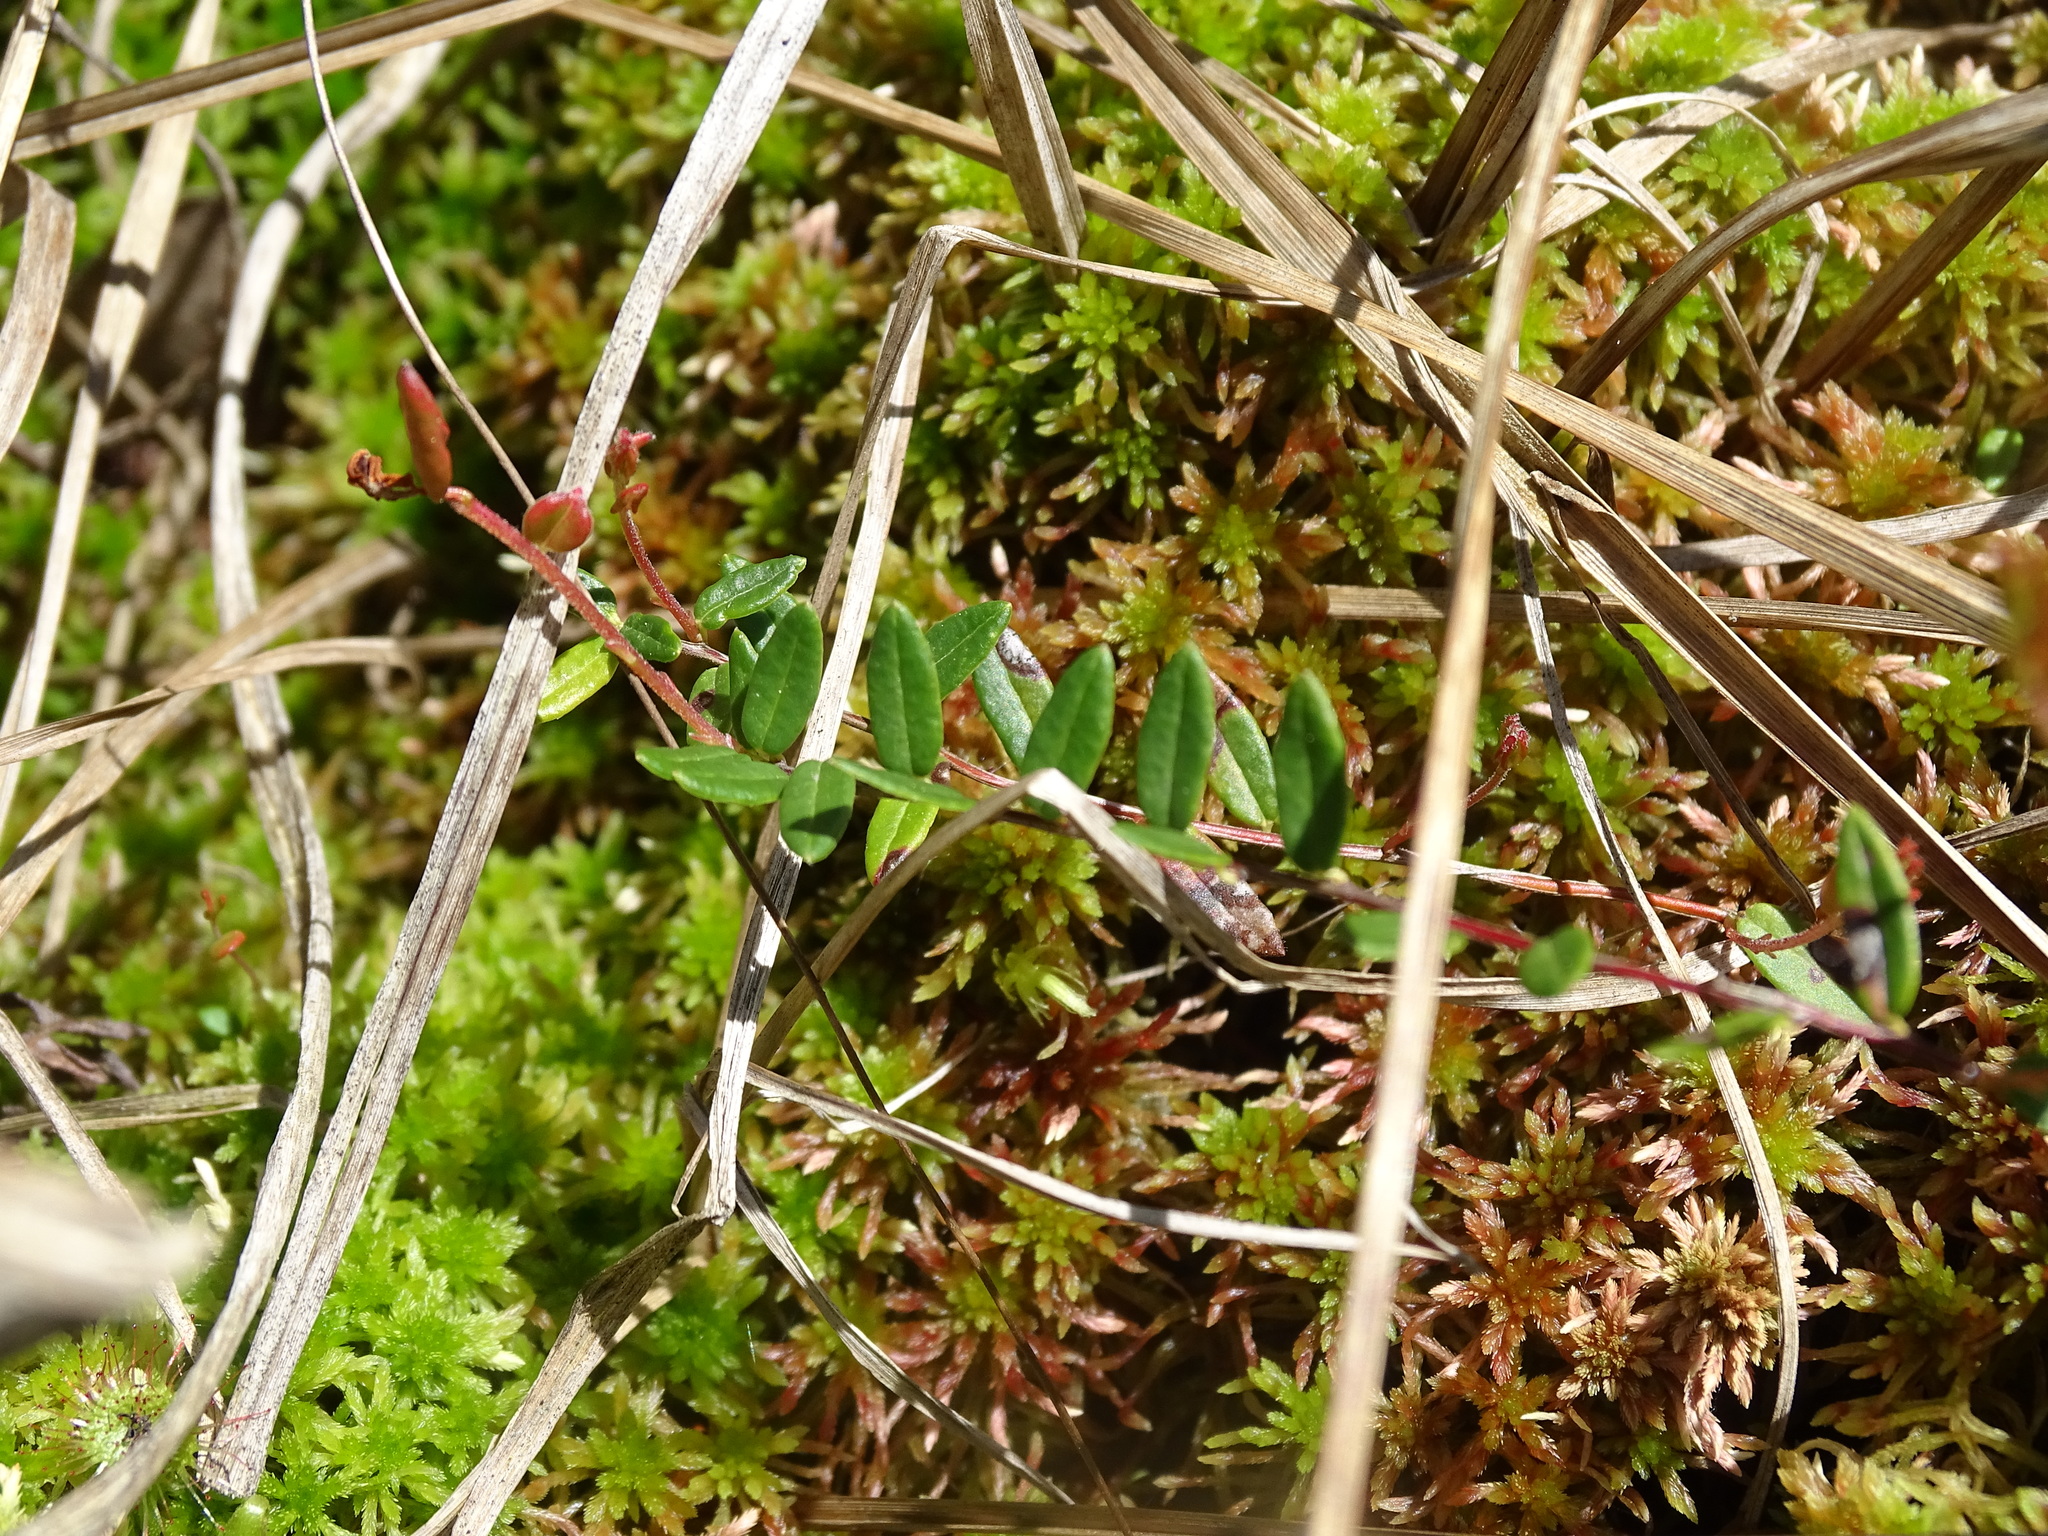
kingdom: Plantae
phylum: Tracheophyta
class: Magnoliopsida
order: Ericales
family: Ericaceae
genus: Vaccinium
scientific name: Vaccinium oxycoccos
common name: Cranberry
